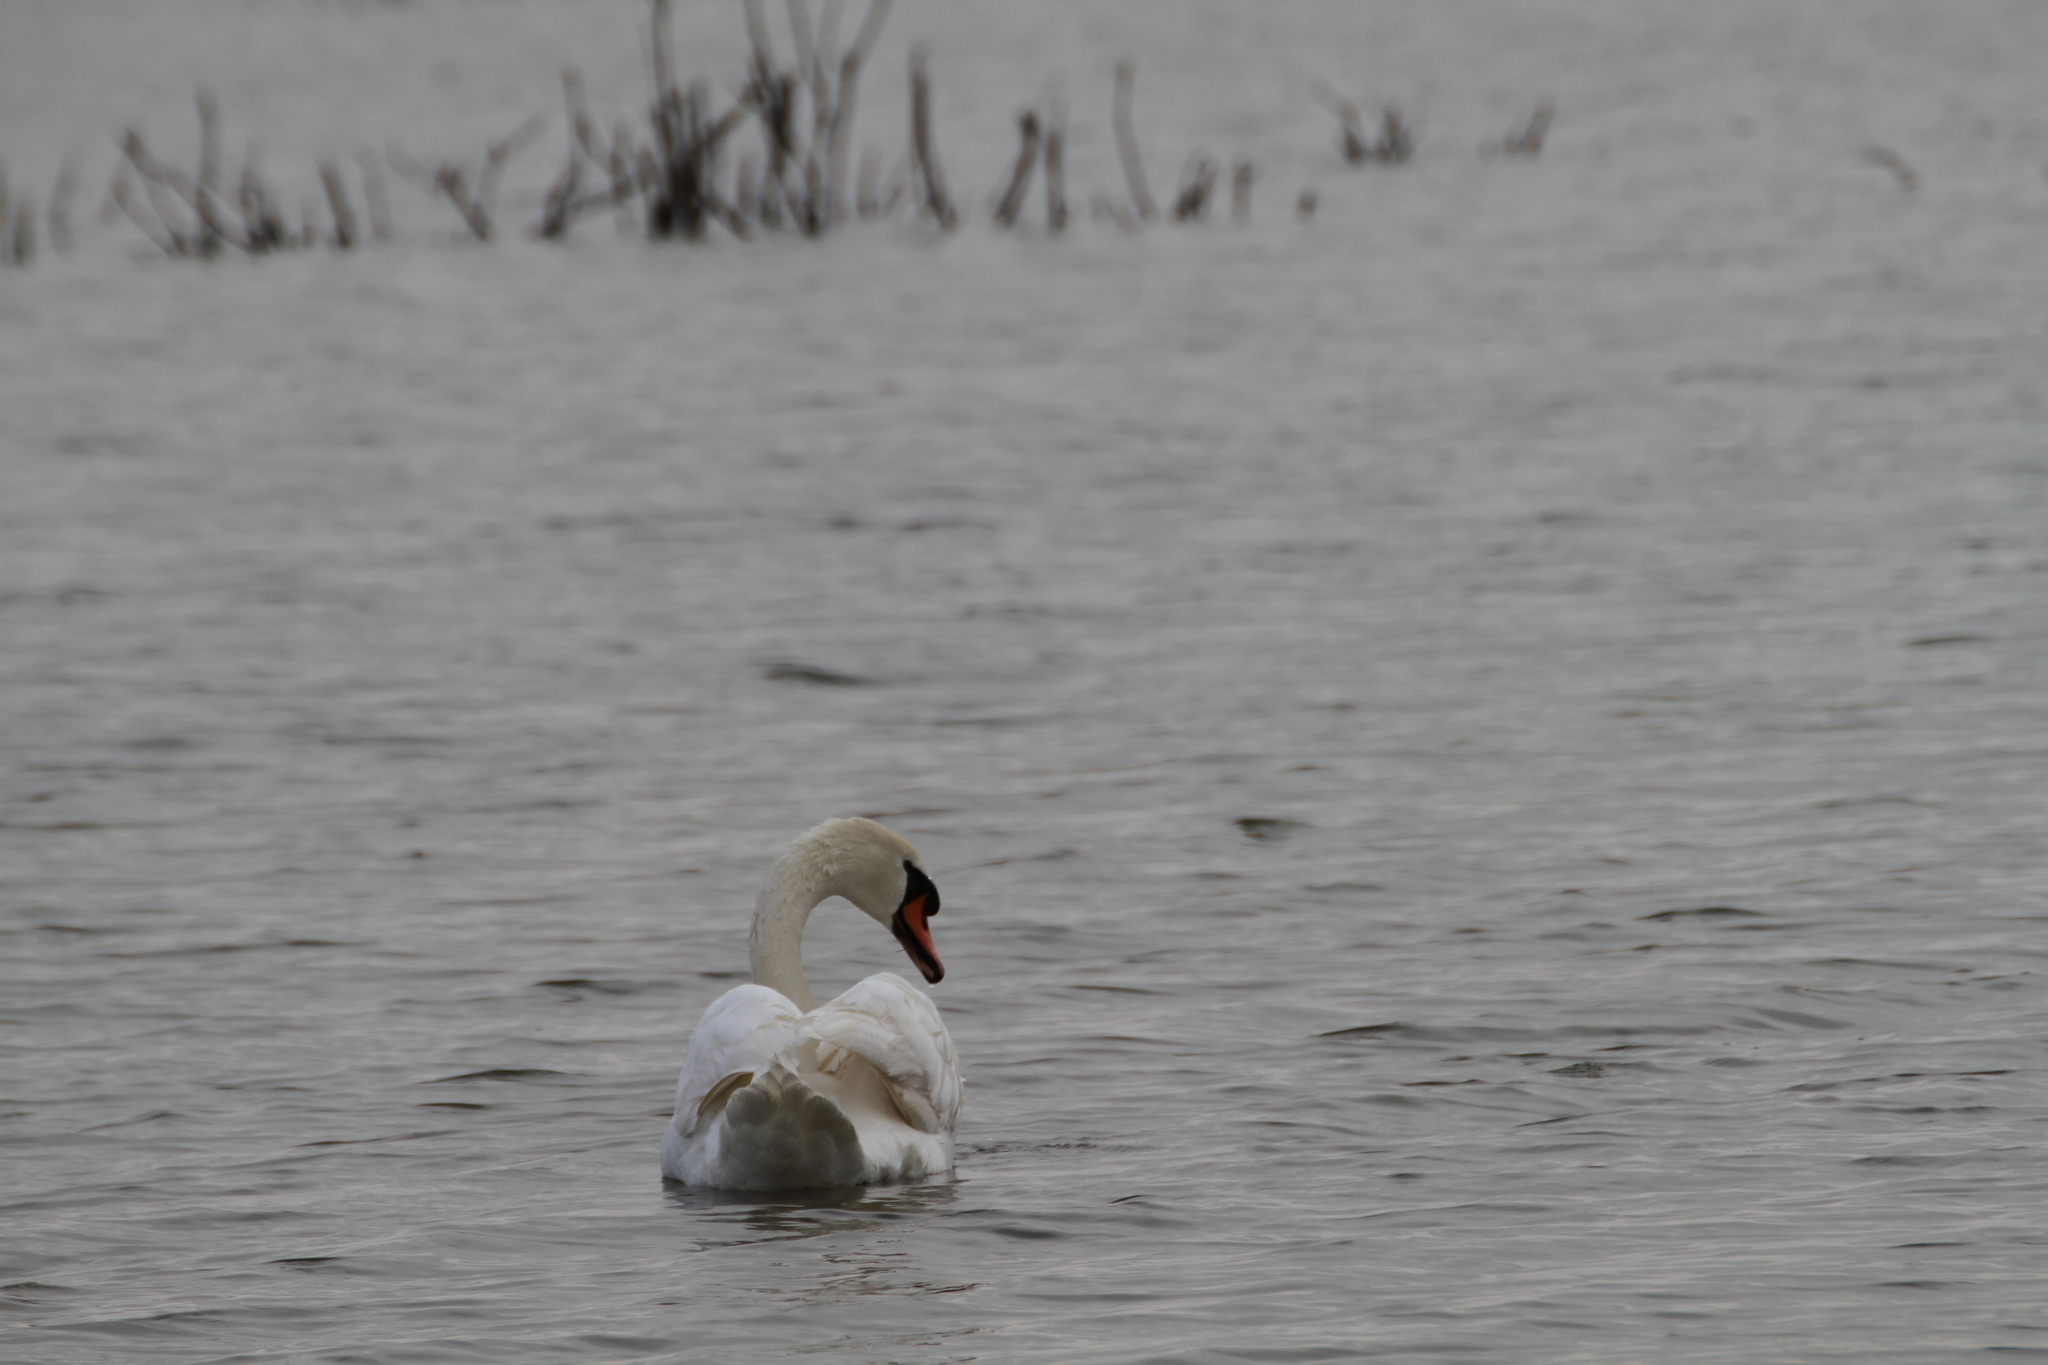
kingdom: Animalia
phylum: Chordata
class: Aves
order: Anseriformes
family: Anatidae
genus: Cygnus
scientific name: Cygnus olor
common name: Mute swan
